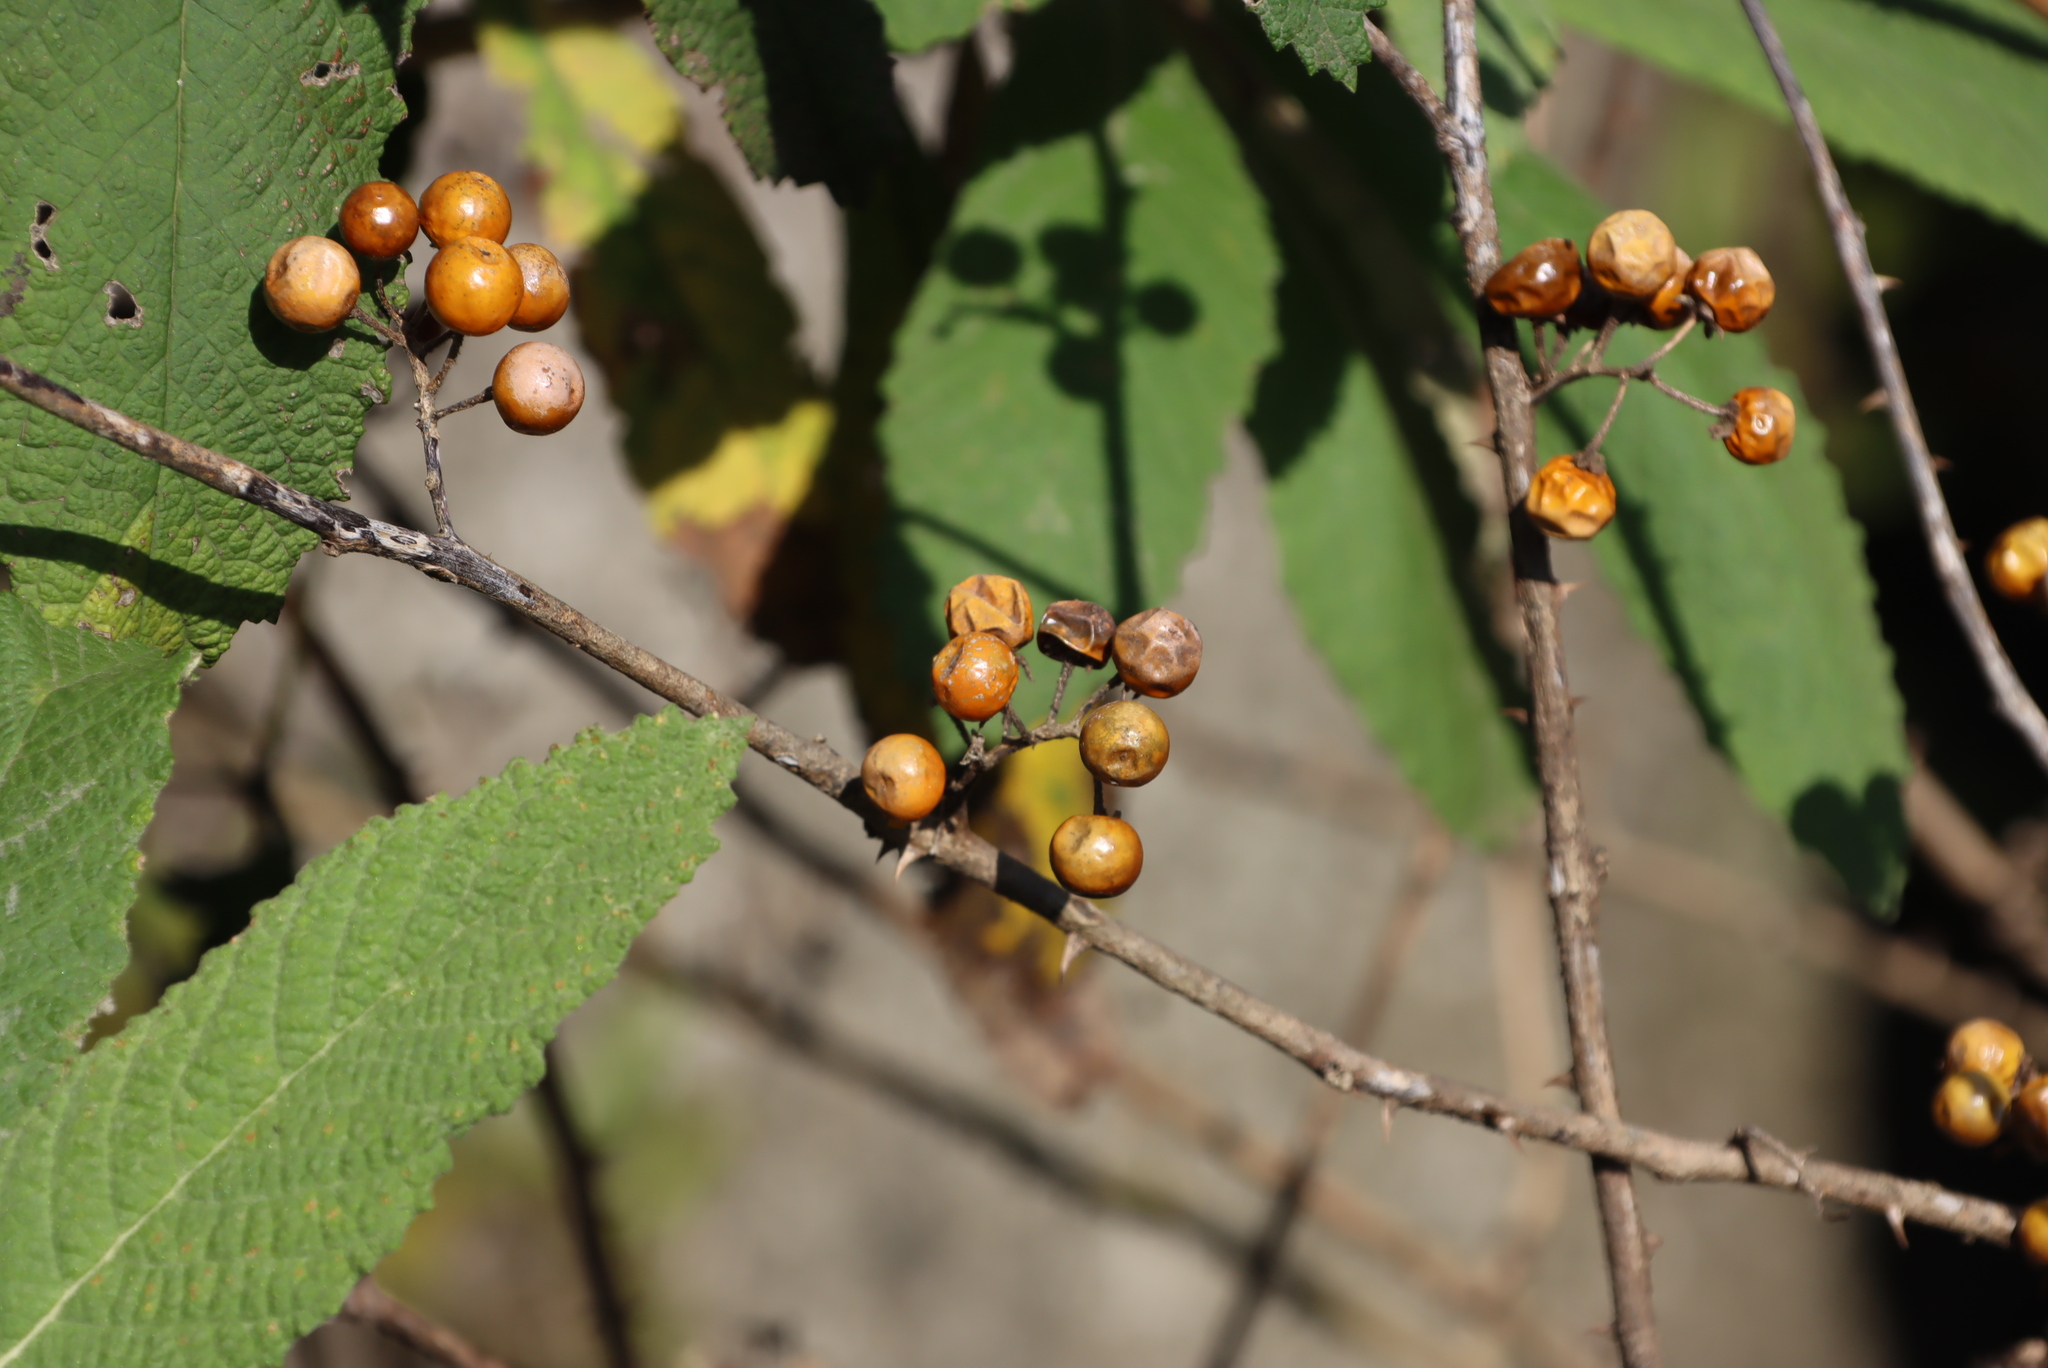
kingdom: Plantae
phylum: Tracheophyta
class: Magnoliopsida
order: Solanales
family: Solanaceae
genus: Solanum
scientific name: Solanum anguivi
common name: Forest bitterberry
